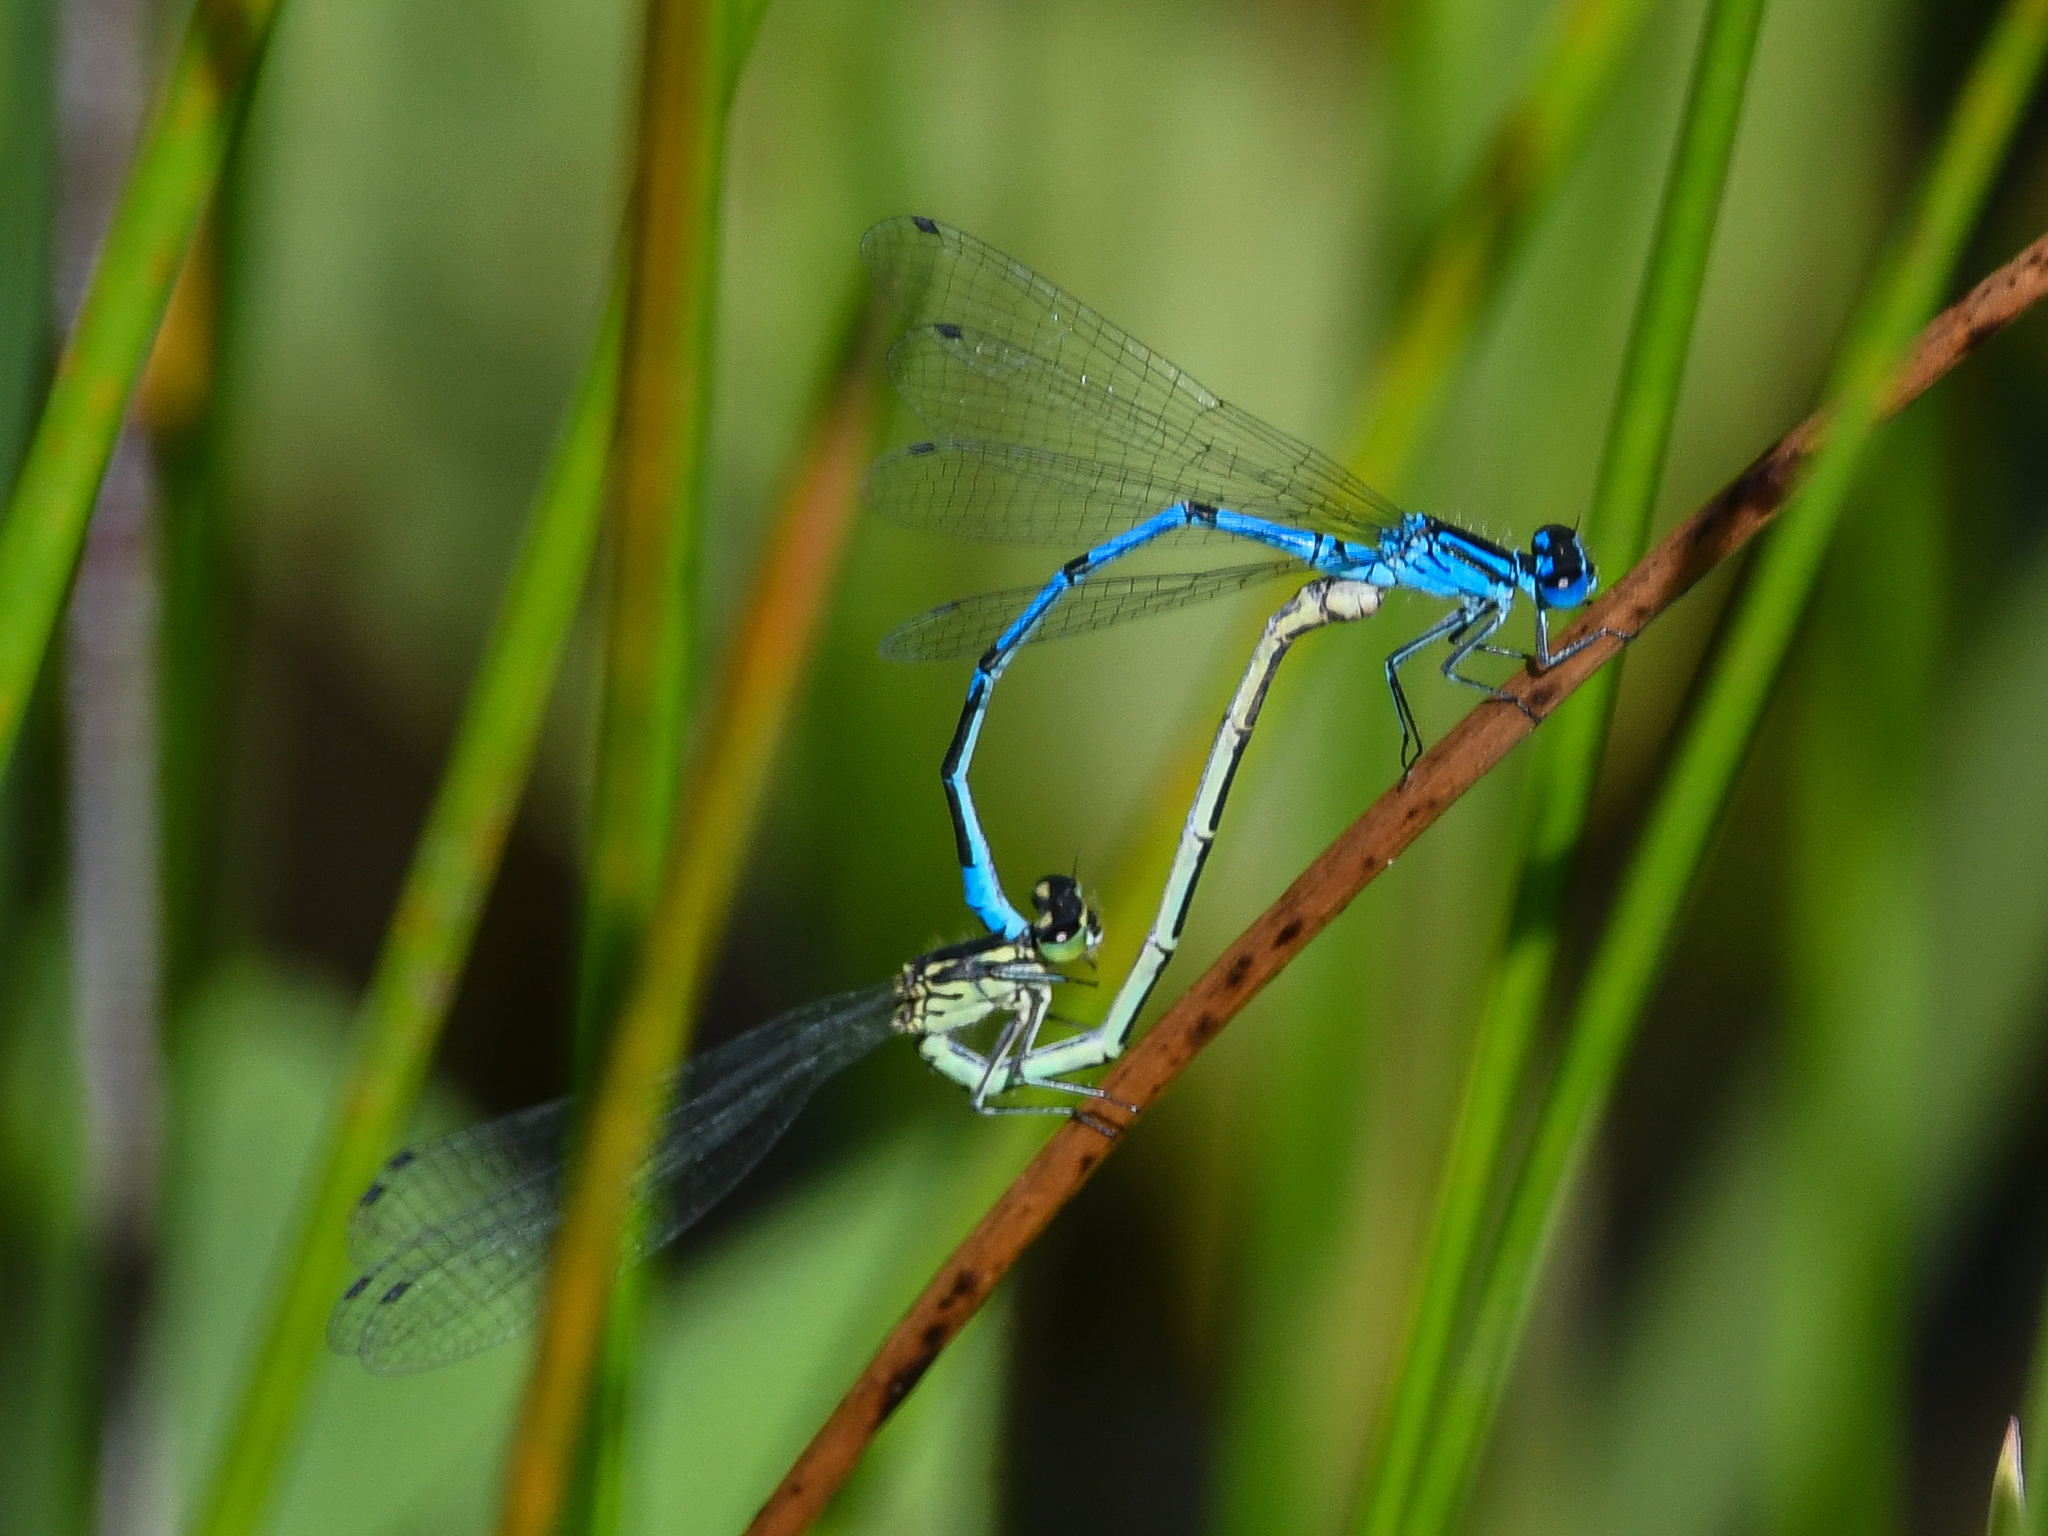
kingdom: Animalia
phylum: Arthropoda
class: Insecta
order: Odonata
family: Coenagrionidae
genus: Coenagrion
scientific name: Coenagrion puella
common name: Azure damselfly
